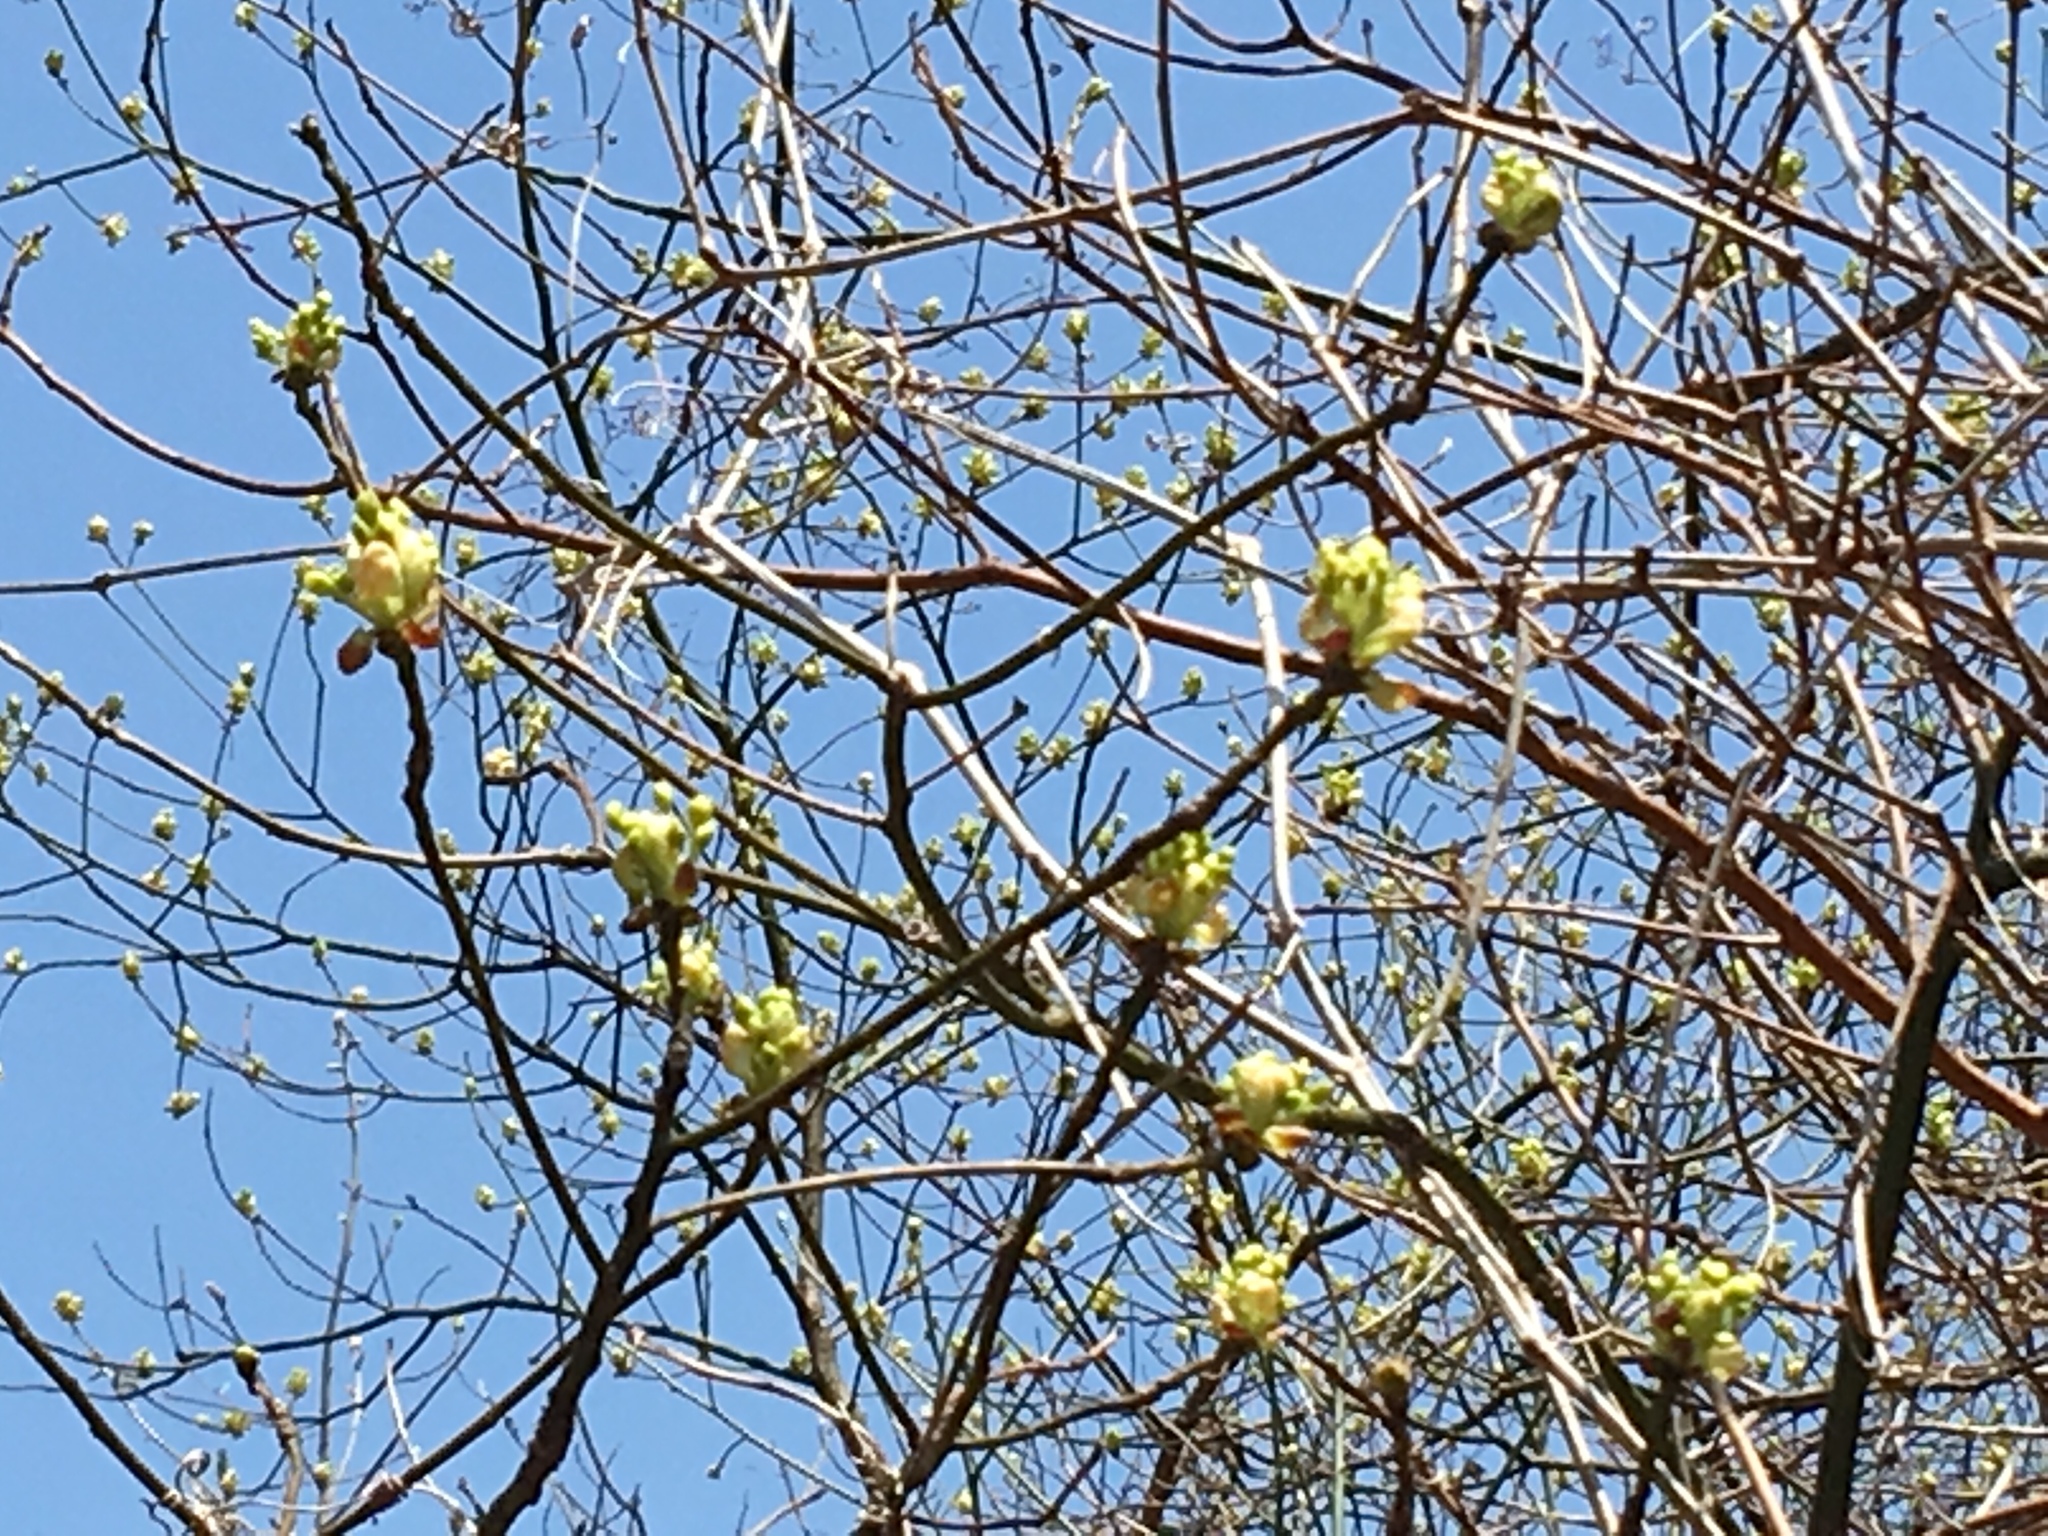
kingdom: Plantae
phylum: Tracheophyta
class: Magnoliopsida
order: Laurales
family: Lauraceae
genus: Sassafras
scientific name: Sassafras albidum
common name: Sassafras
